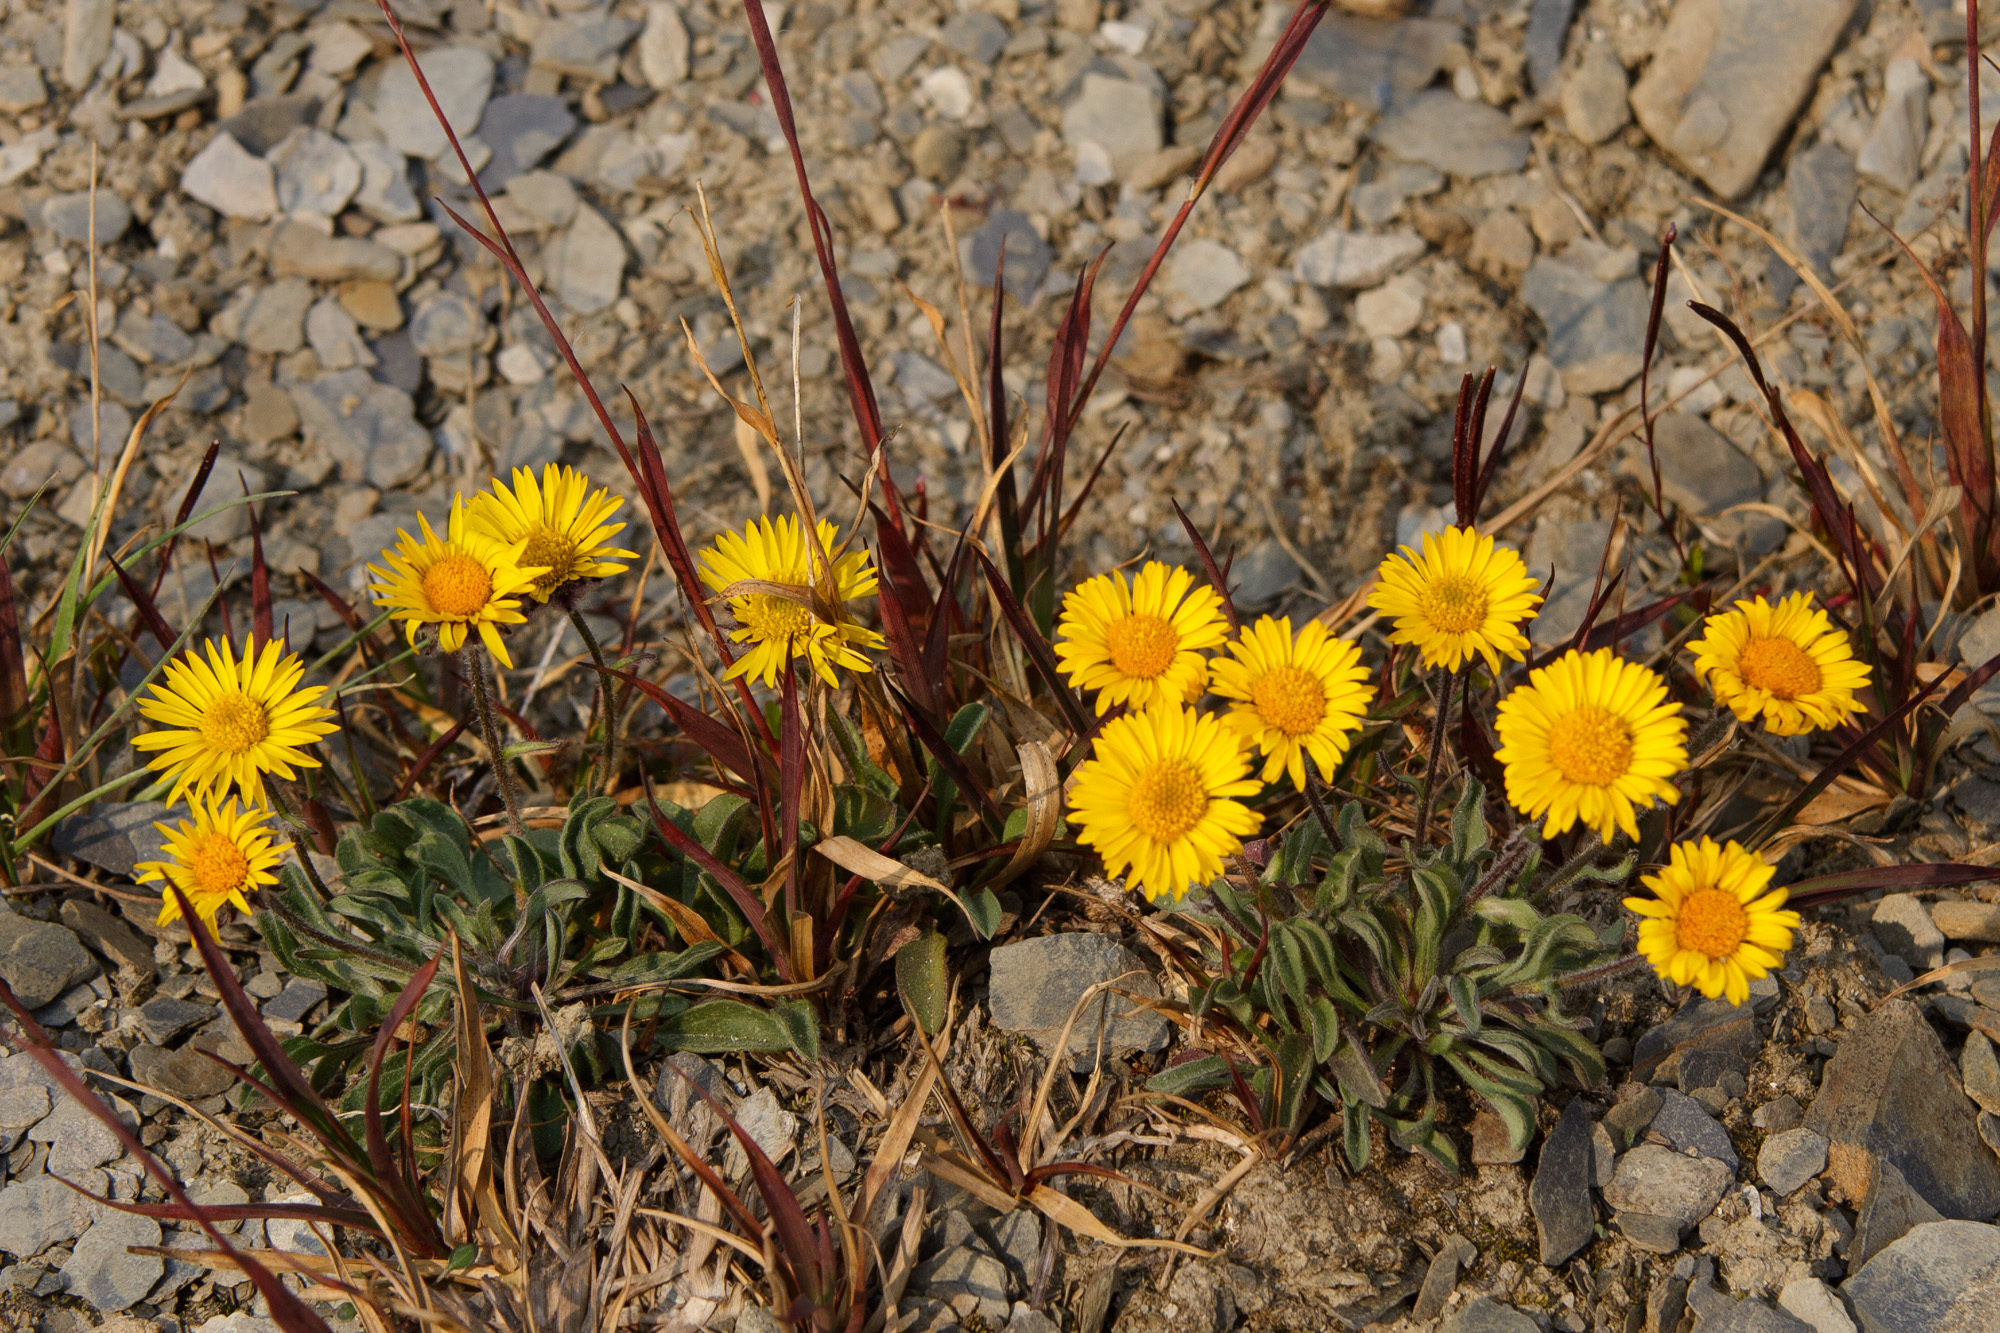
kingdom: Plantae
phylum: Tracheophyta
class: Magnoliopsida
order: Asterales
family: Asteraceae
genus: Erigeron
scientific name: Erigeron aureus
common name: Alpine yellow fleabane
